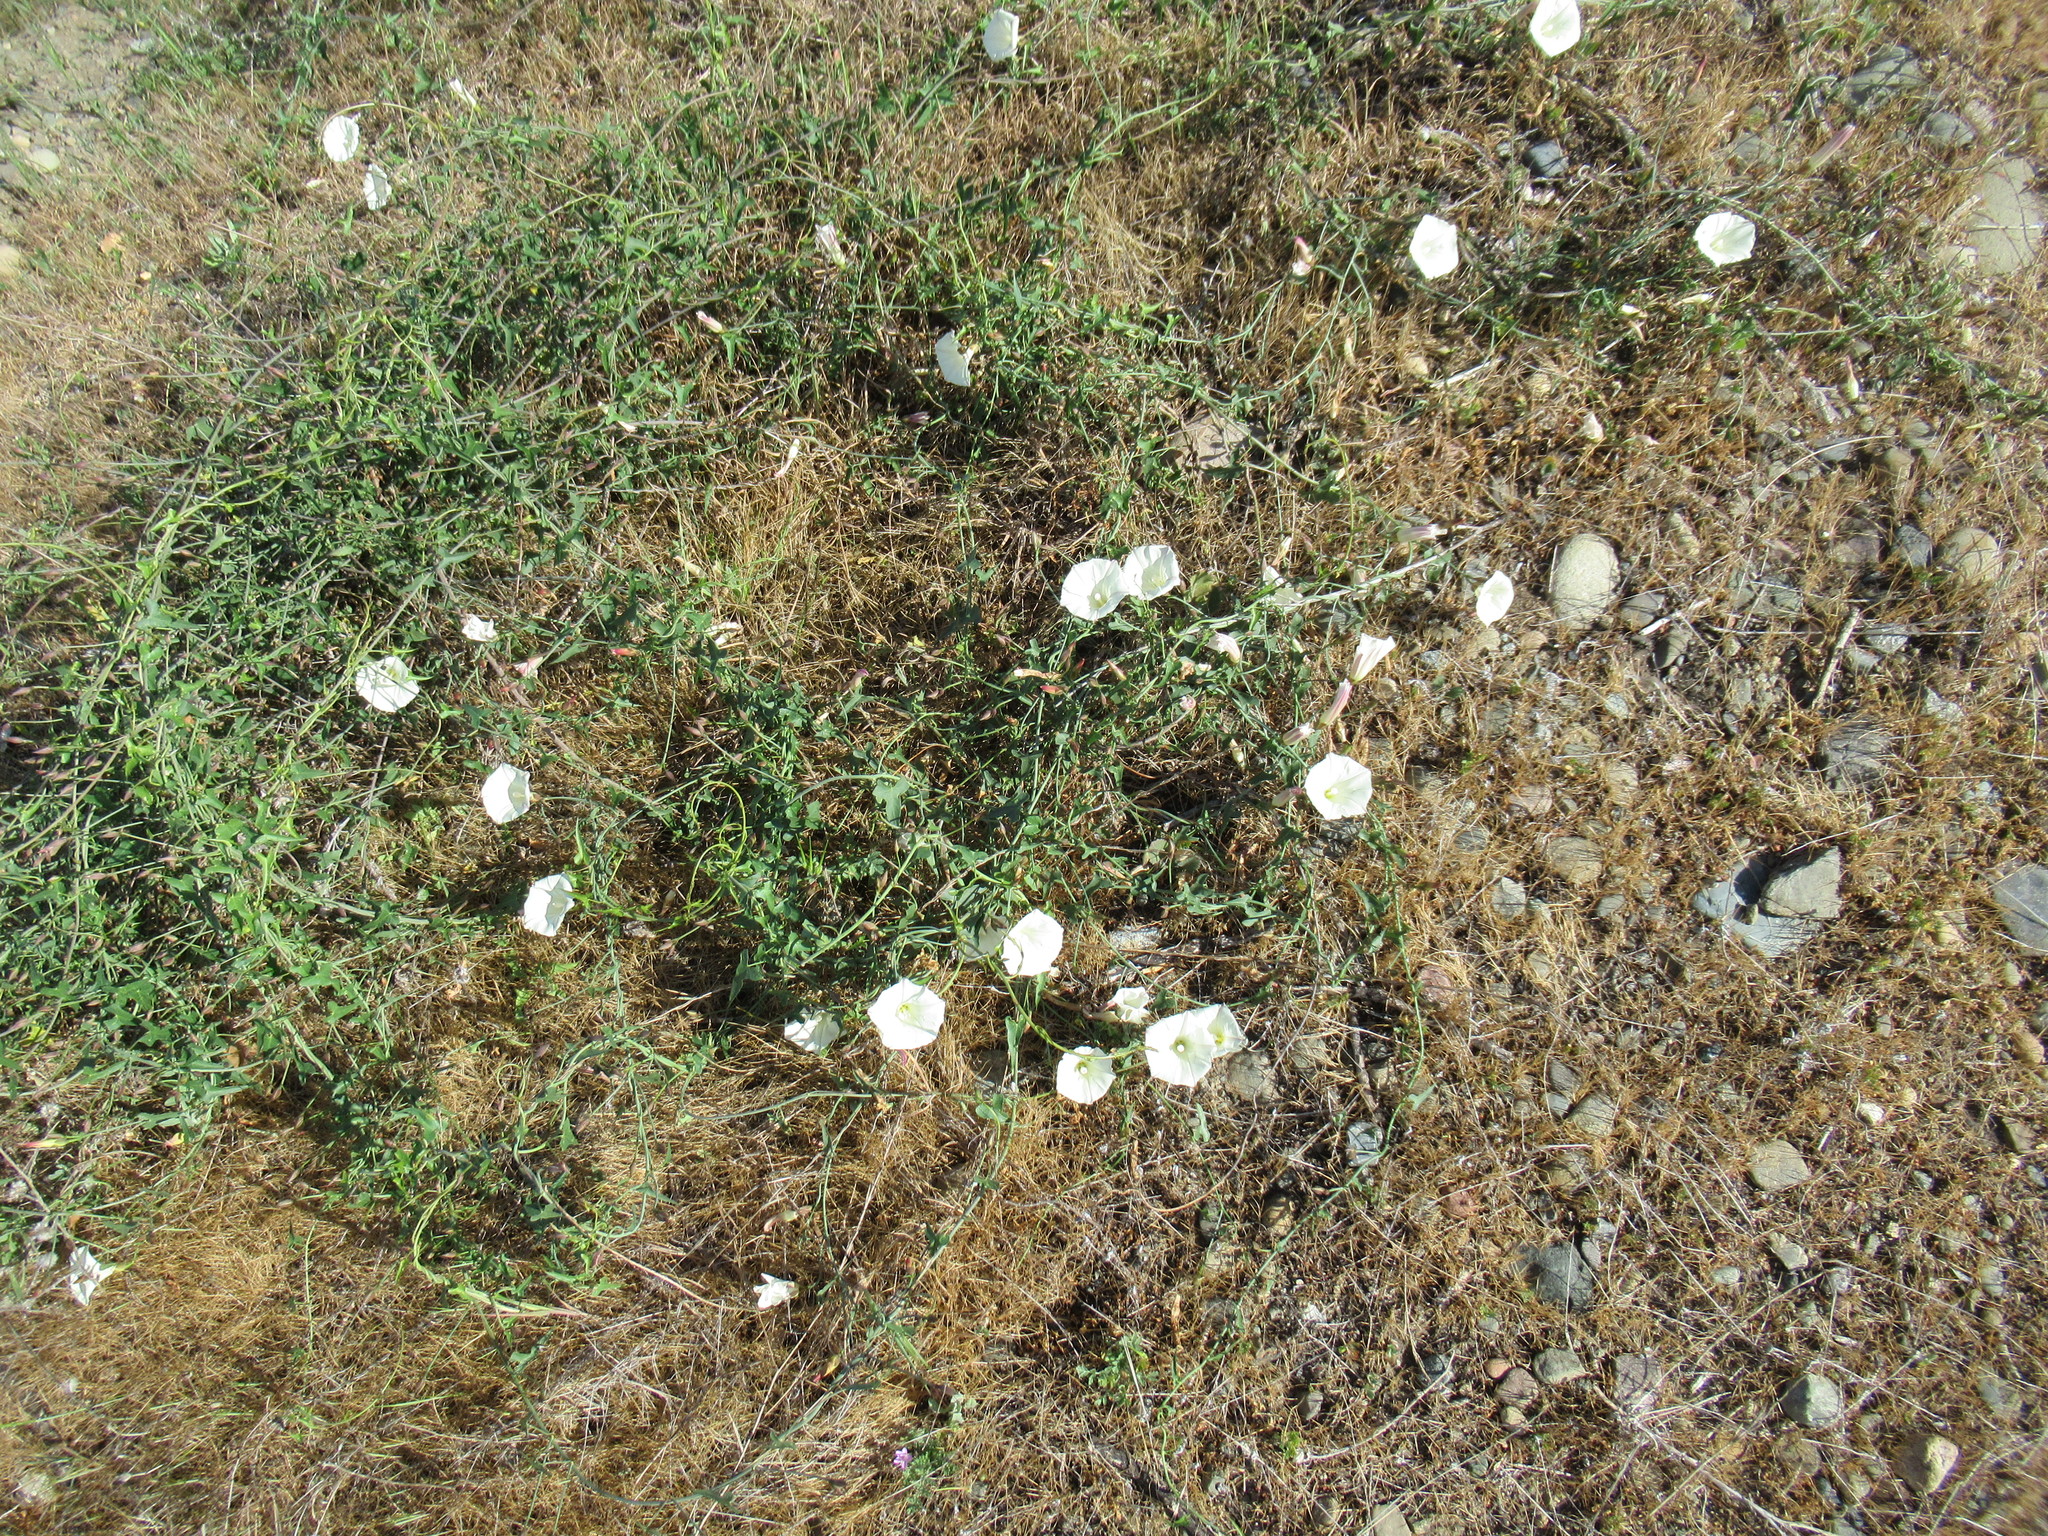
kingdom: Plantae
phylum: Tracheophyta
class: Magnoliopsida
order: Solanales
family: Convolvulaceae
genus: Calystegia
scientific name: Calystegia purpurata
